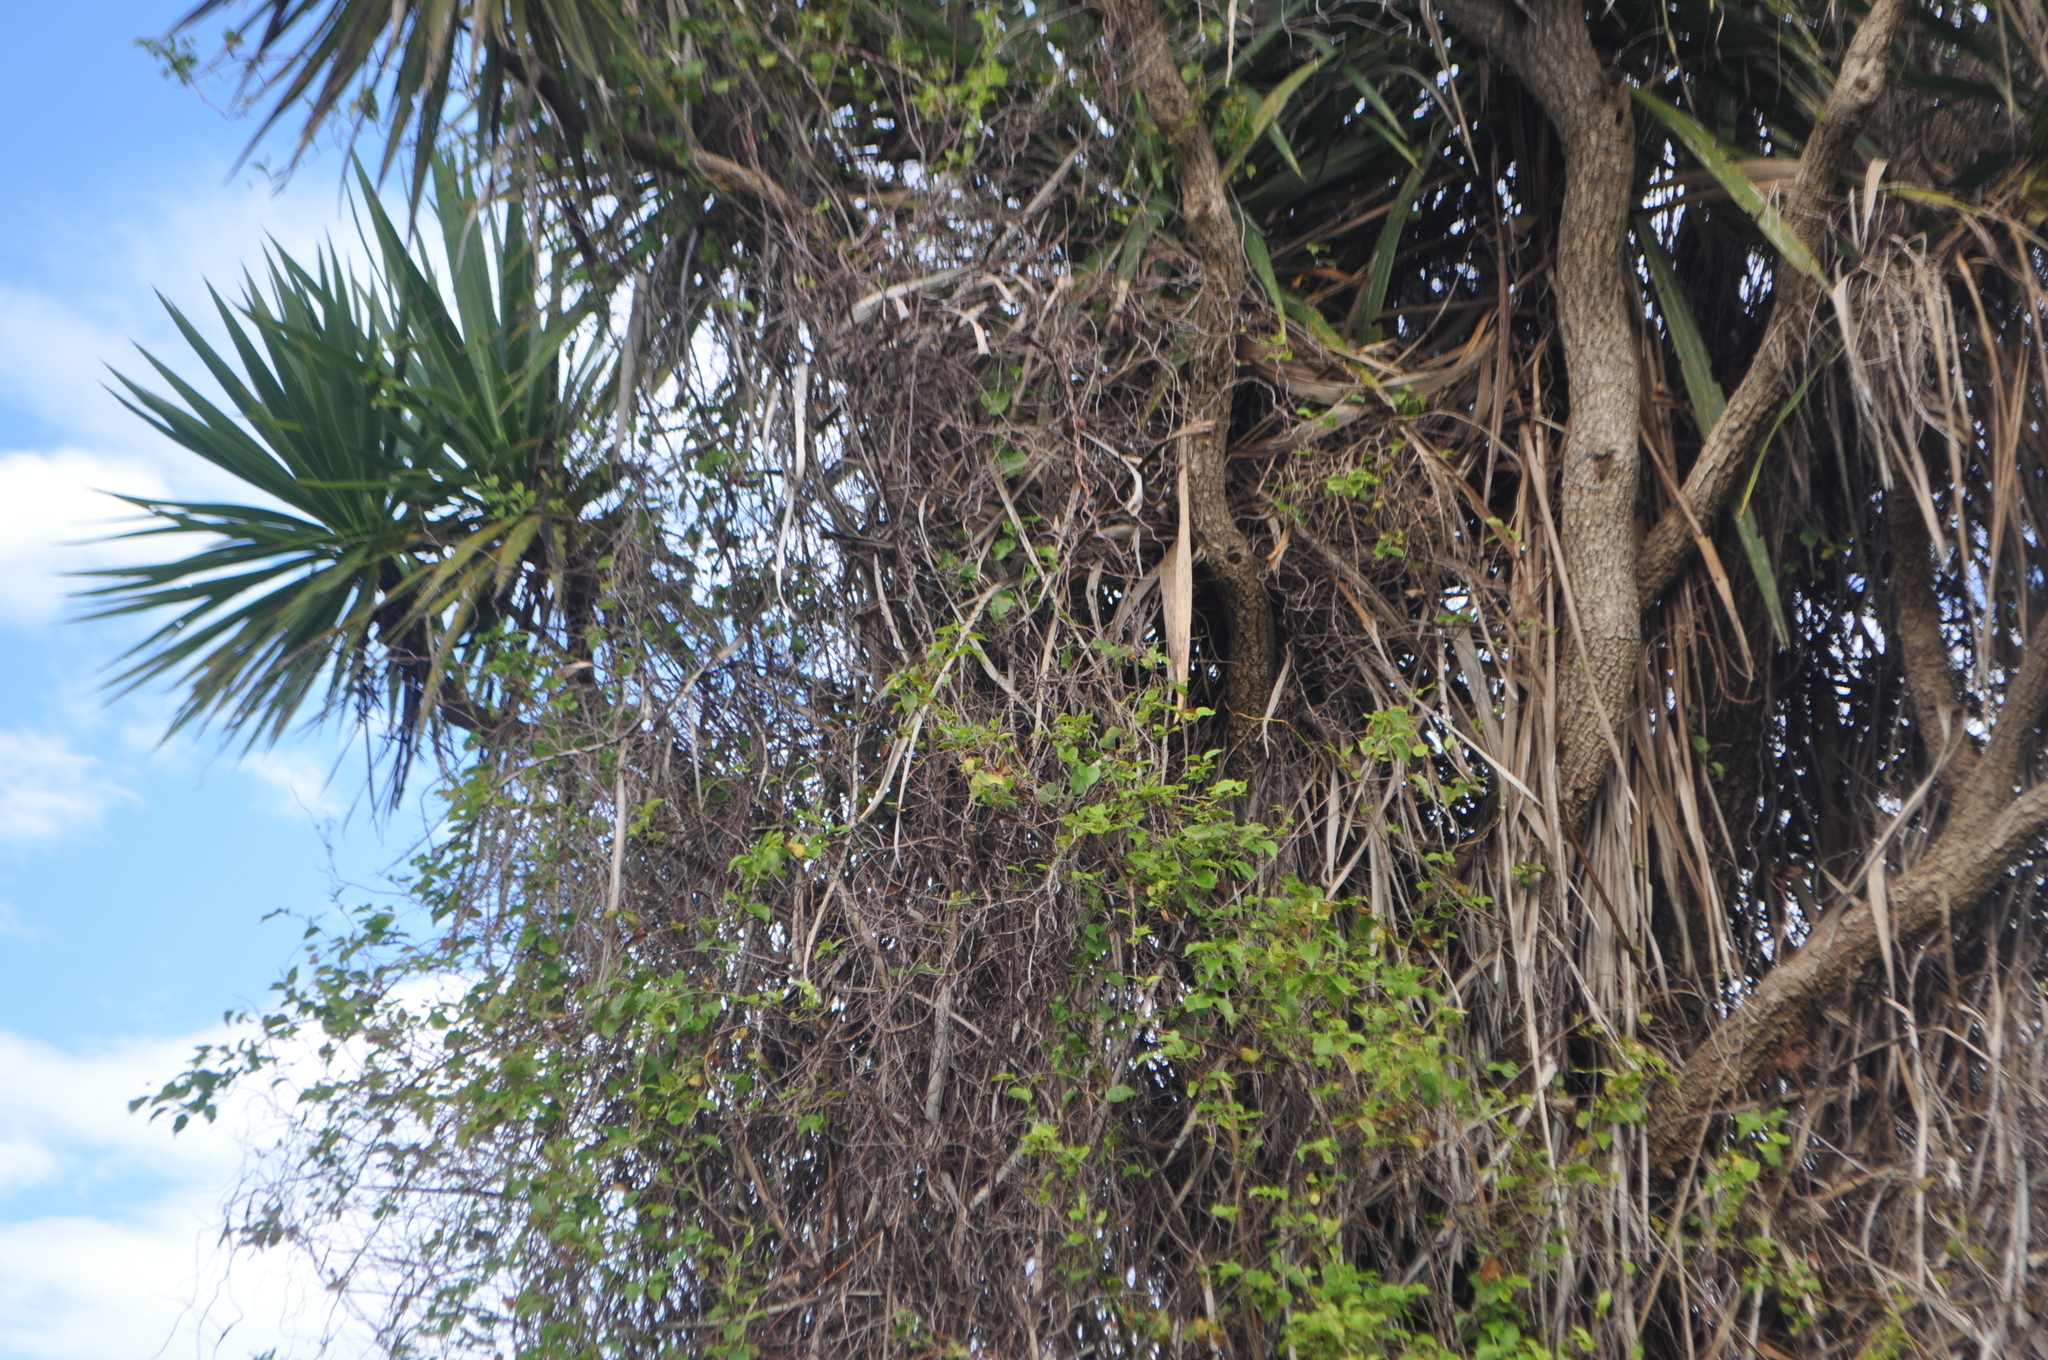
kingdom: Plantae
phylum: Tracheophyta
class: Magnoliopsida
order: Caryophyllales
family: Polygonaceae
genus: Muehlenbeckia
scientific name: Muehlenbeckia australis
